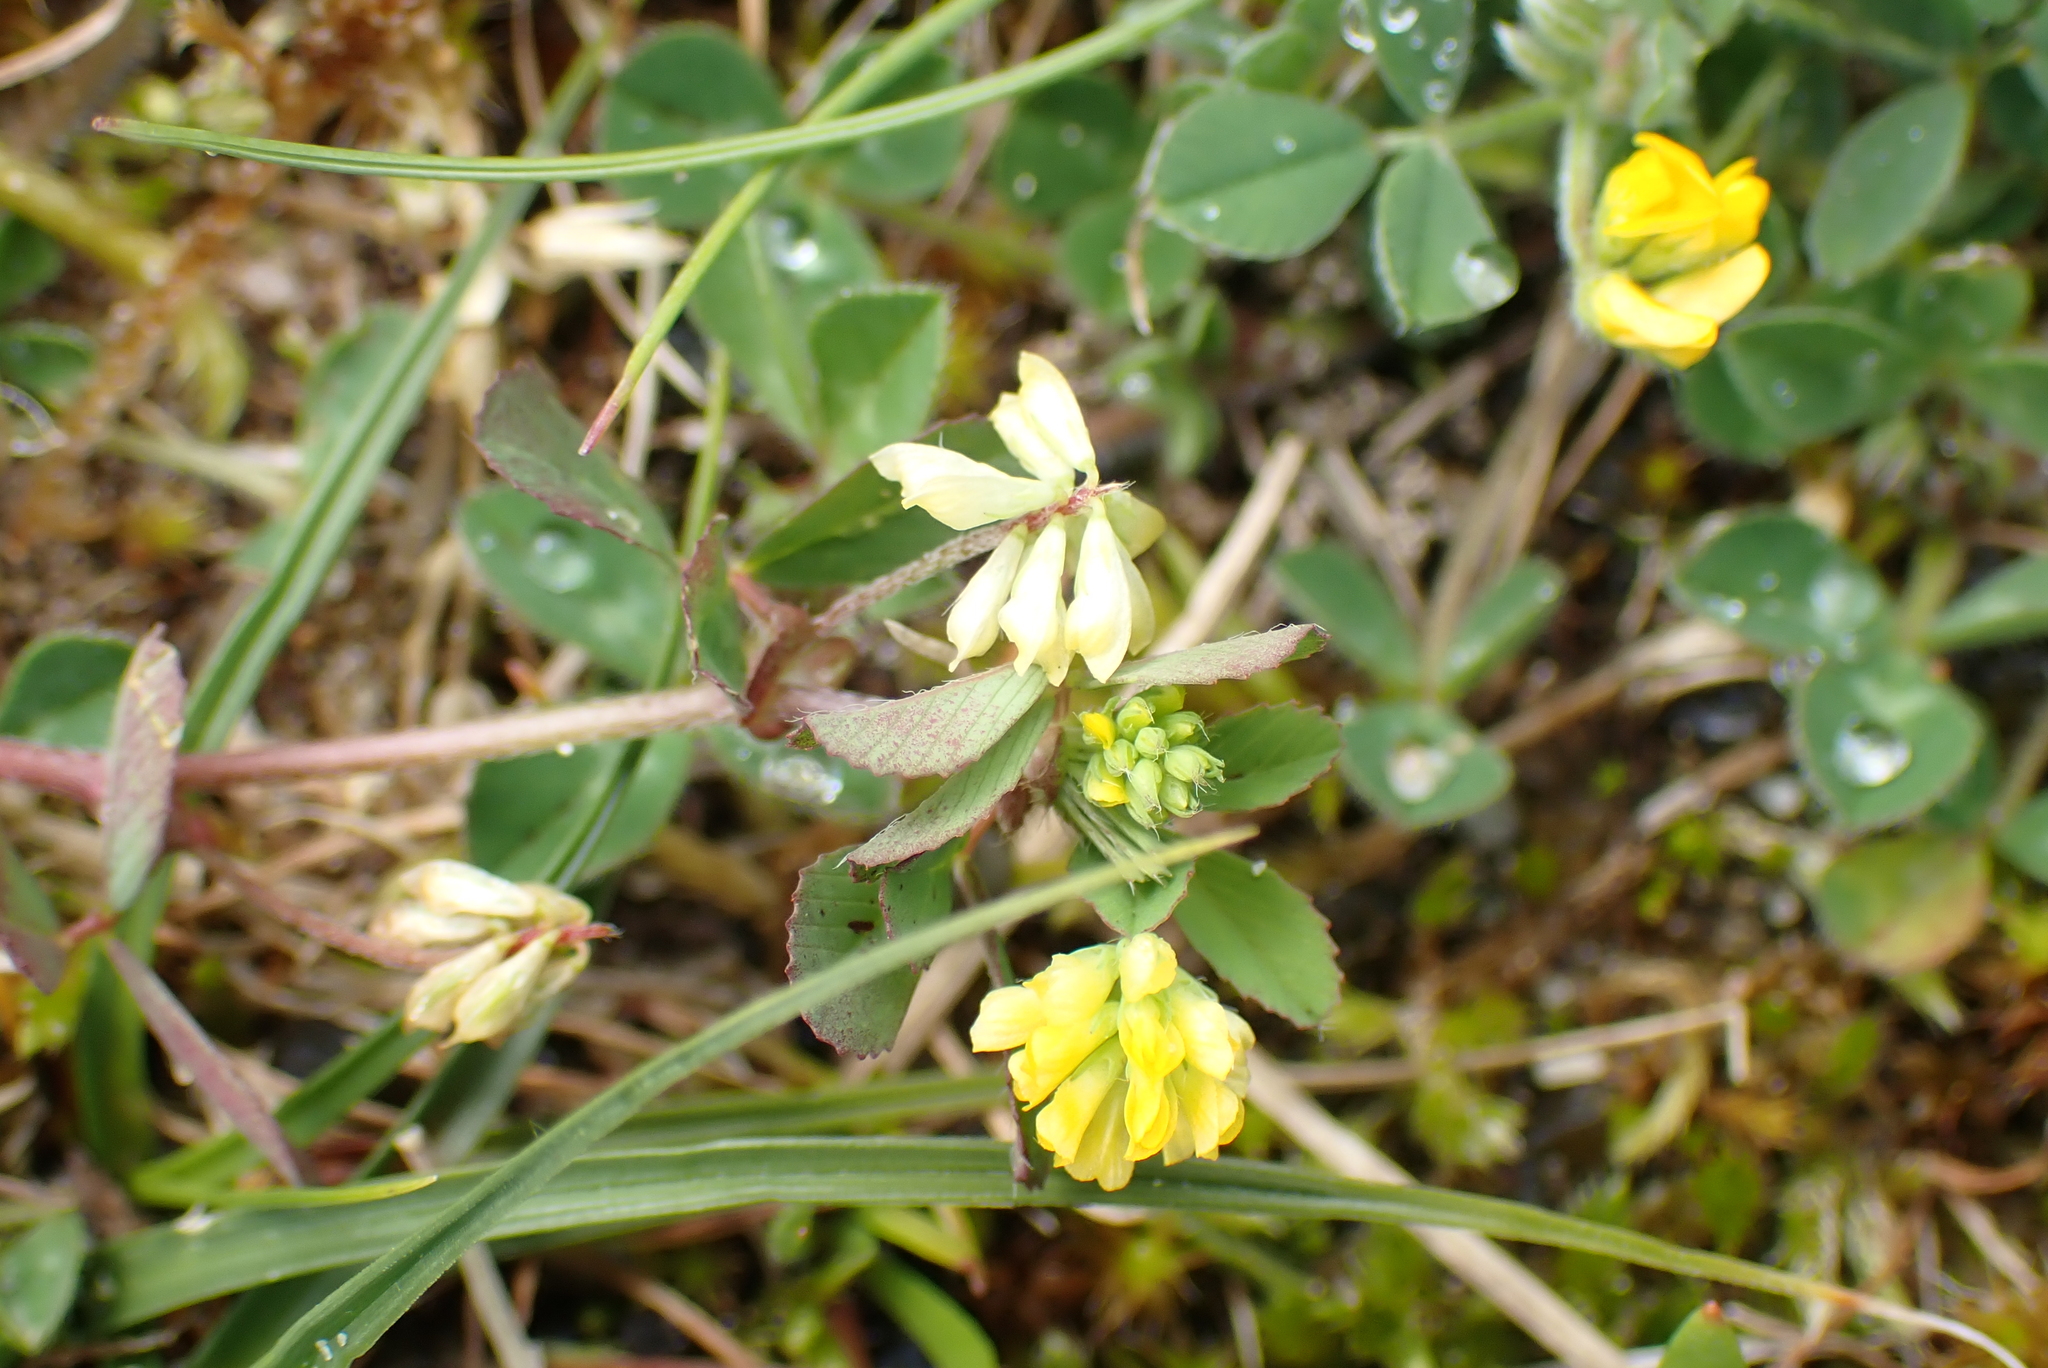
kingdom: Plantae
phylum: Tracheophyta
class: Magnoliopsida
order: Fabales
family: Fabaceae
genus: Trifolium
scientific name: Trifolium dubium
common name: Suckling clover
